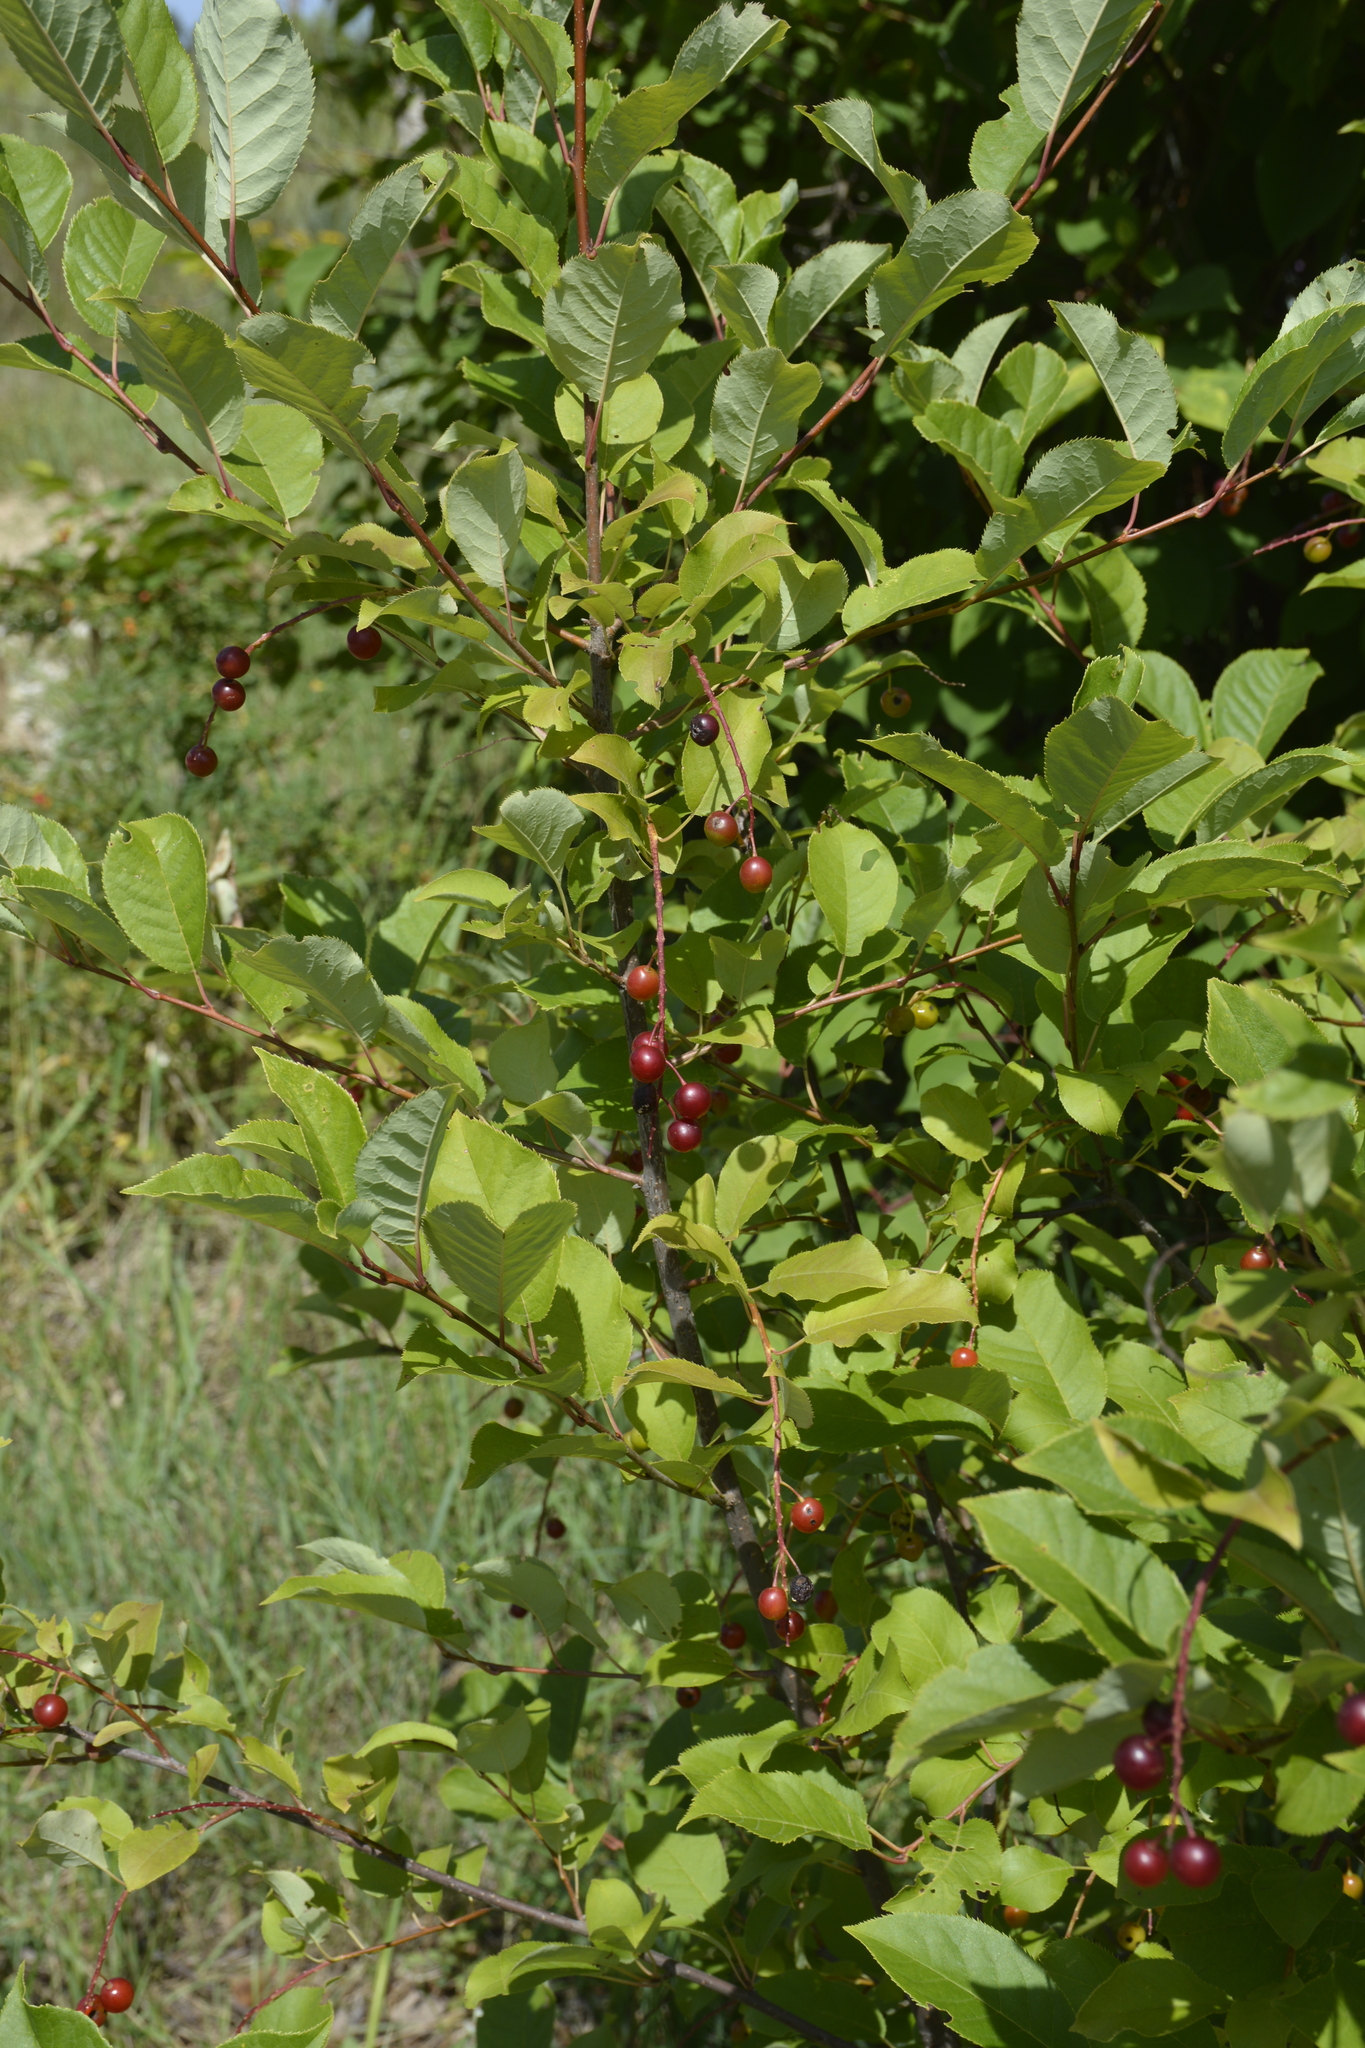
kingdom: Plantae
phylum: Tracheophyta
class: Magnoliopsida
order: Rosales
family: Rosaceae
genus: Prunus
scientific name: Prunus virginiana
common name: Chokecherry
